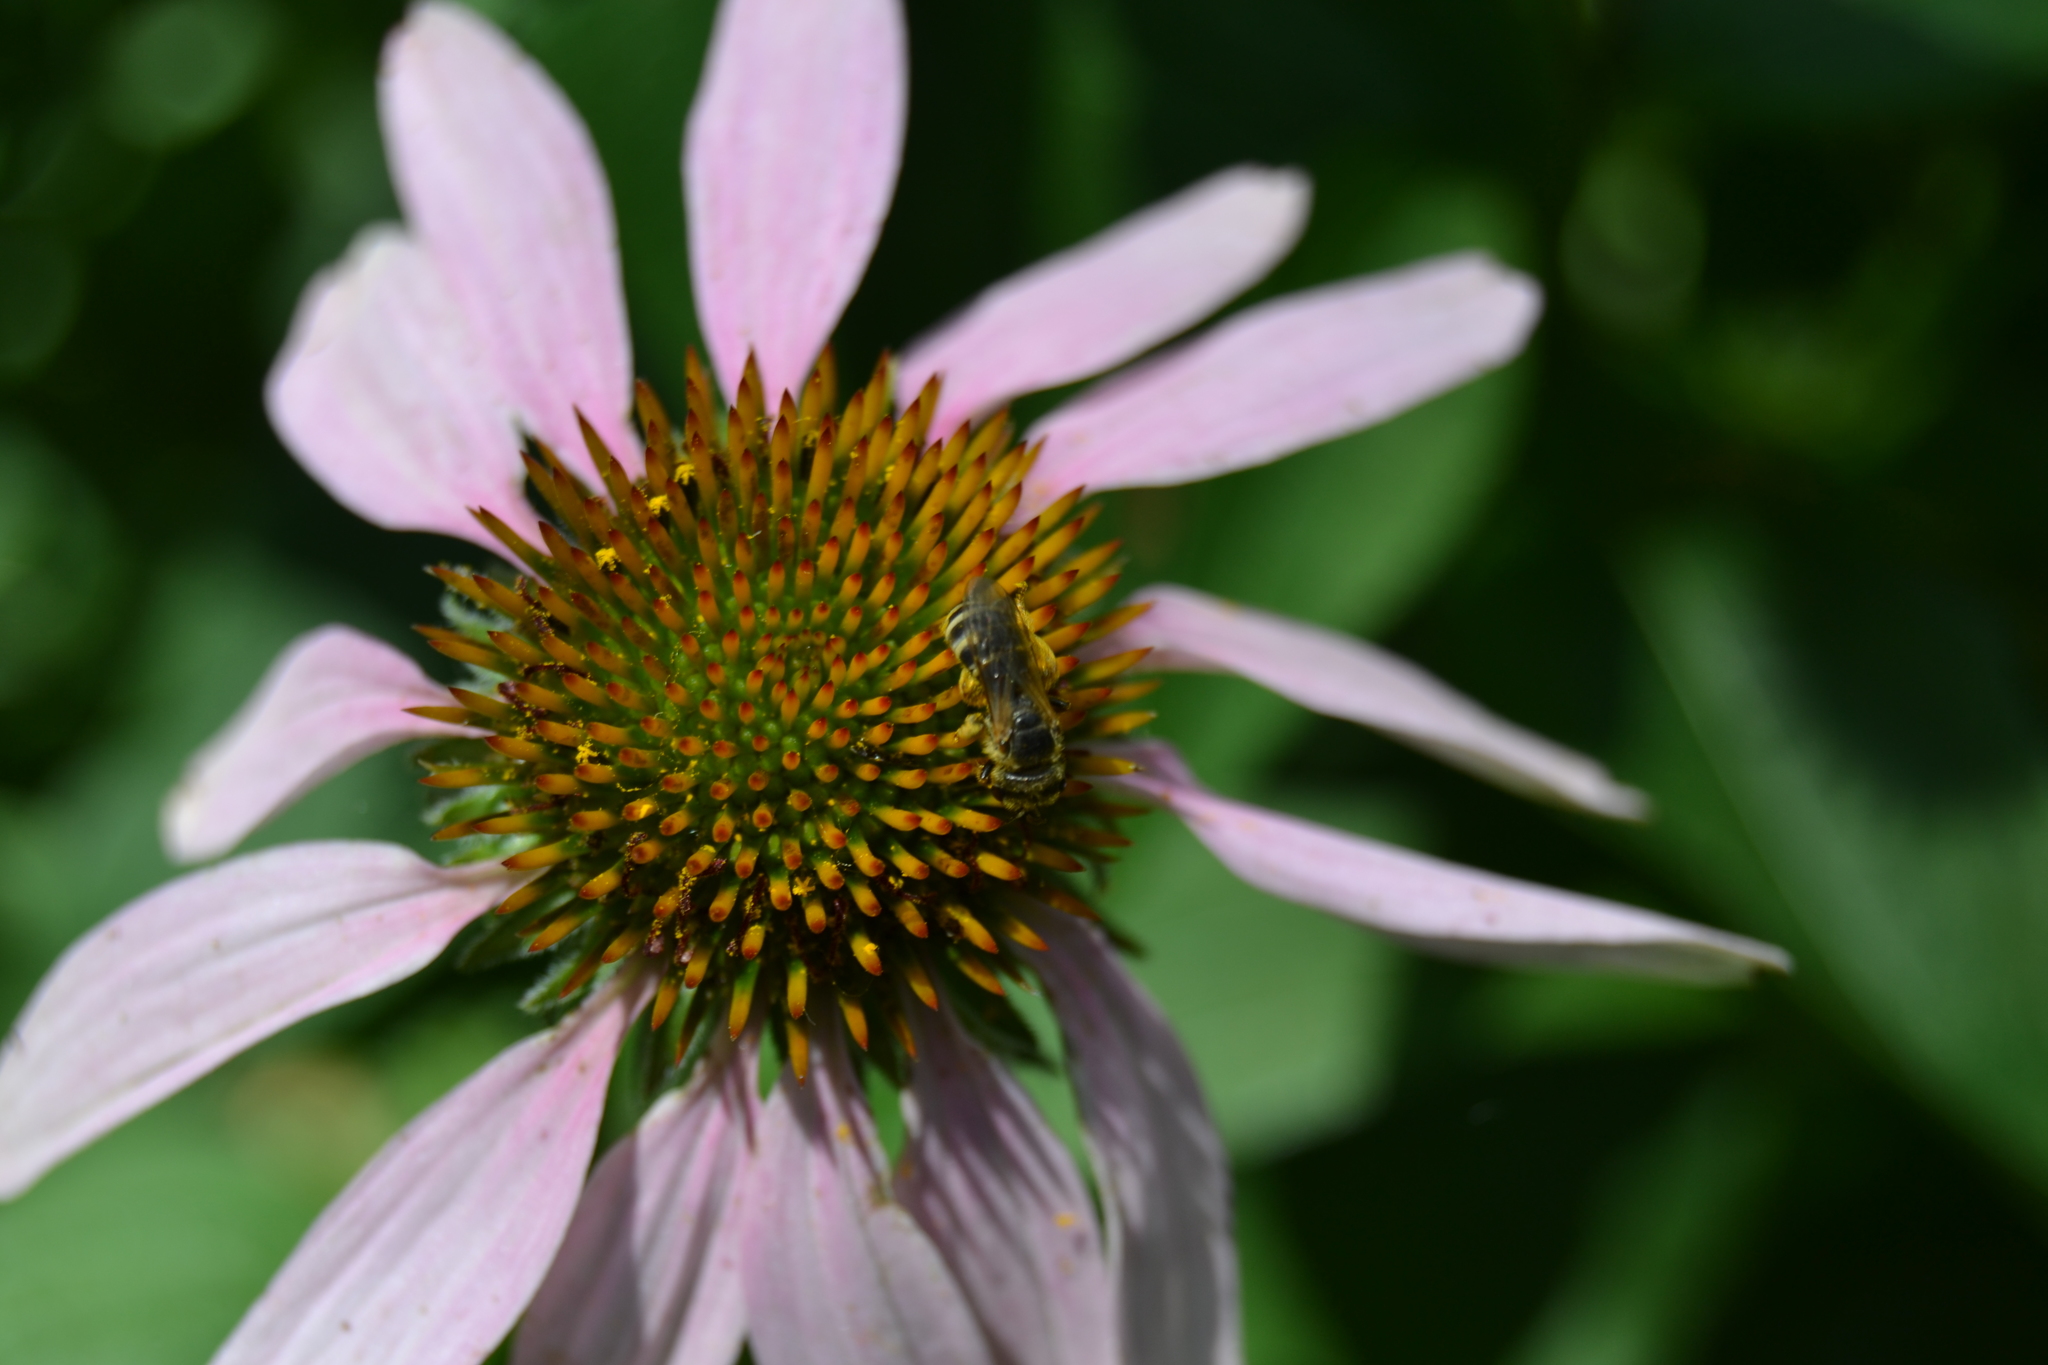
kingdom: Animalia
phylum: Arthropoda
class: Insecta
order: Hymenoptera
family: Halictidae
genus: Halictus
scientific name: Halictus ligatus
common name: Ligated furrow bee
